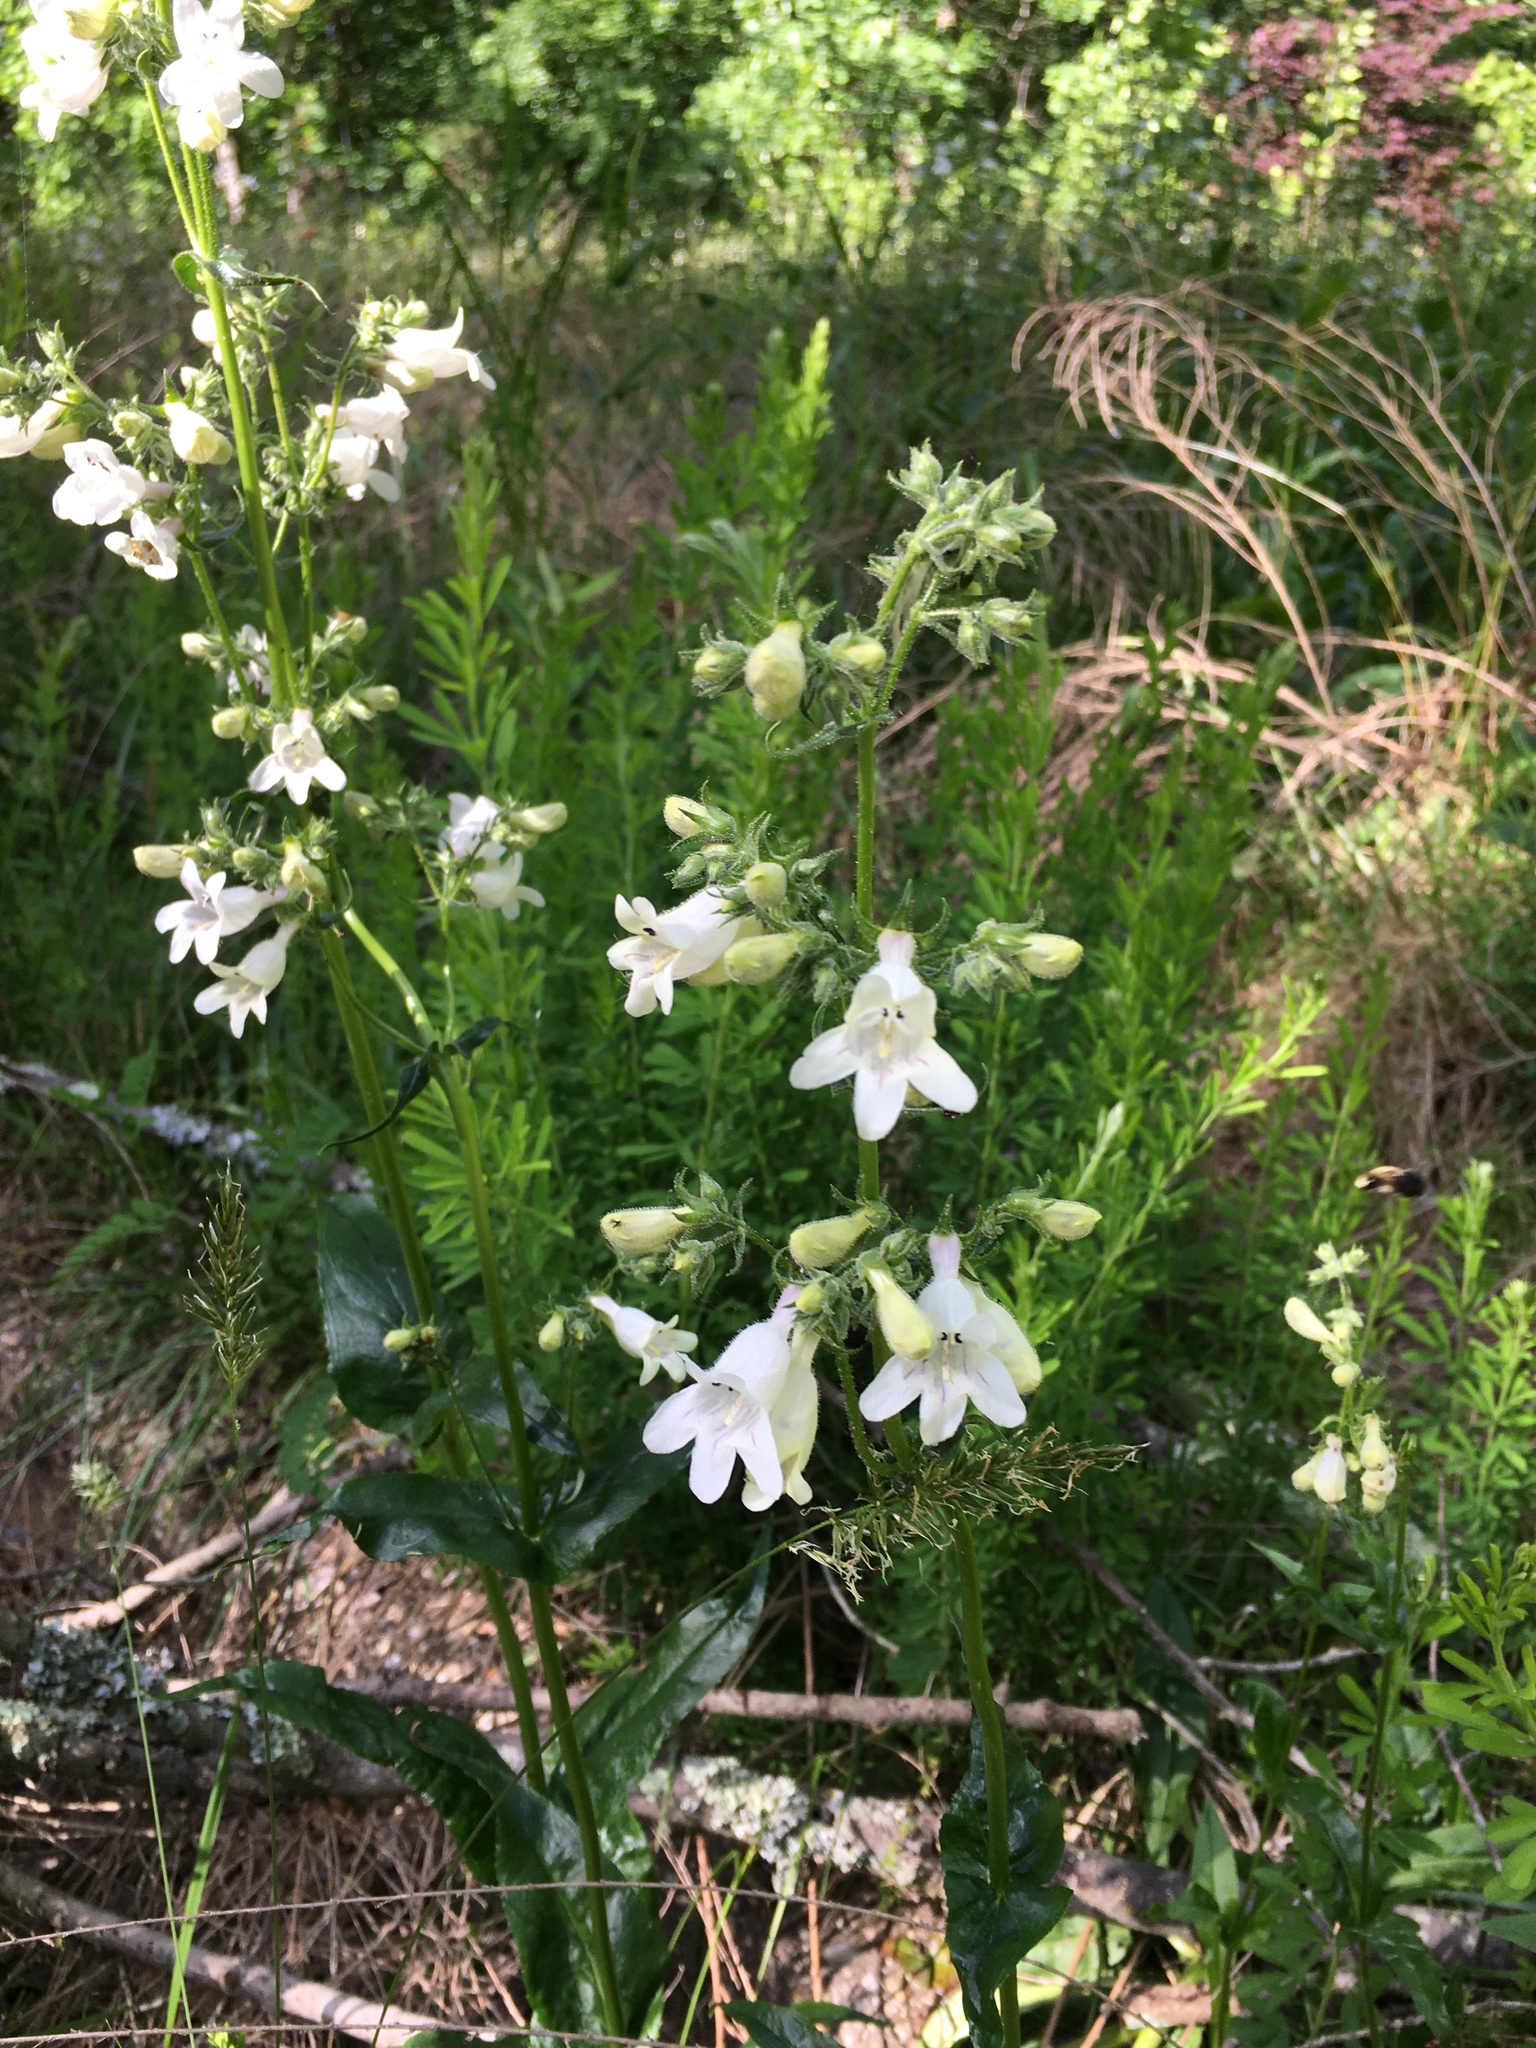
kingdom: Plantae
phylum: Tracheophyta
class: Magnoliopsida
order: Lamiales
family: Plantaginaceae
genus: Penstemon
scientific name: Penstemon digitalis
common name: Foxglove beardtongue
